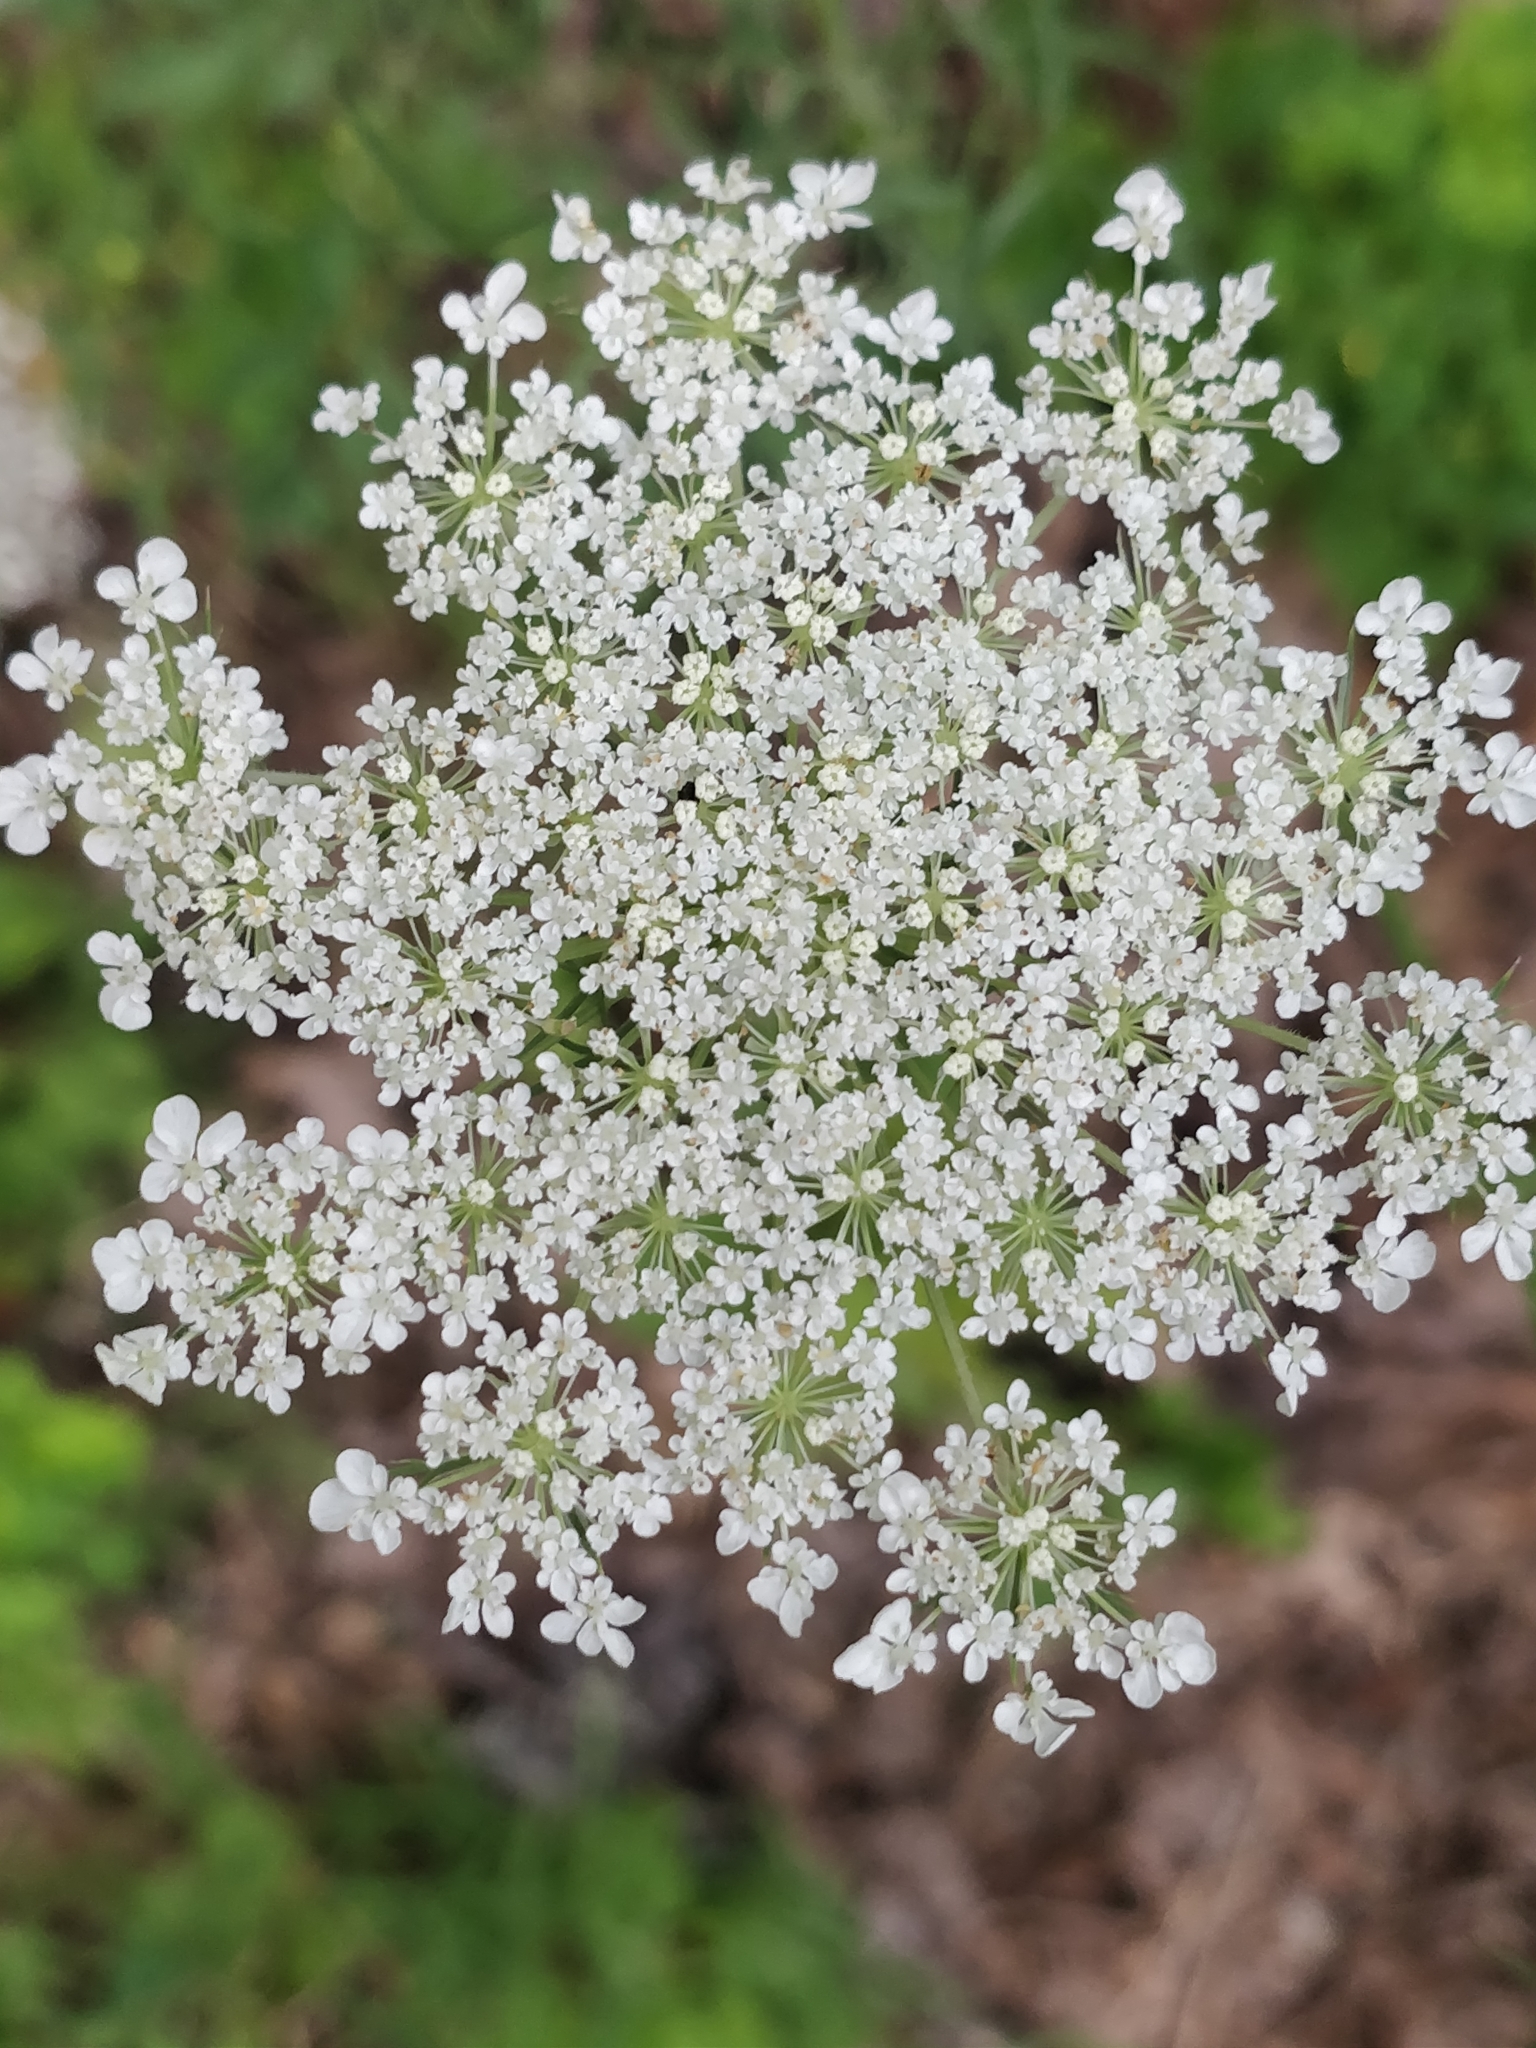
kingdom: Plantae
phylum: Tracheophyta
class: Magnoliopsida
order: Apiales
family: Apiaceae
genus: Daucus
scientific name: Daucus carota
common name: Wild carrot
